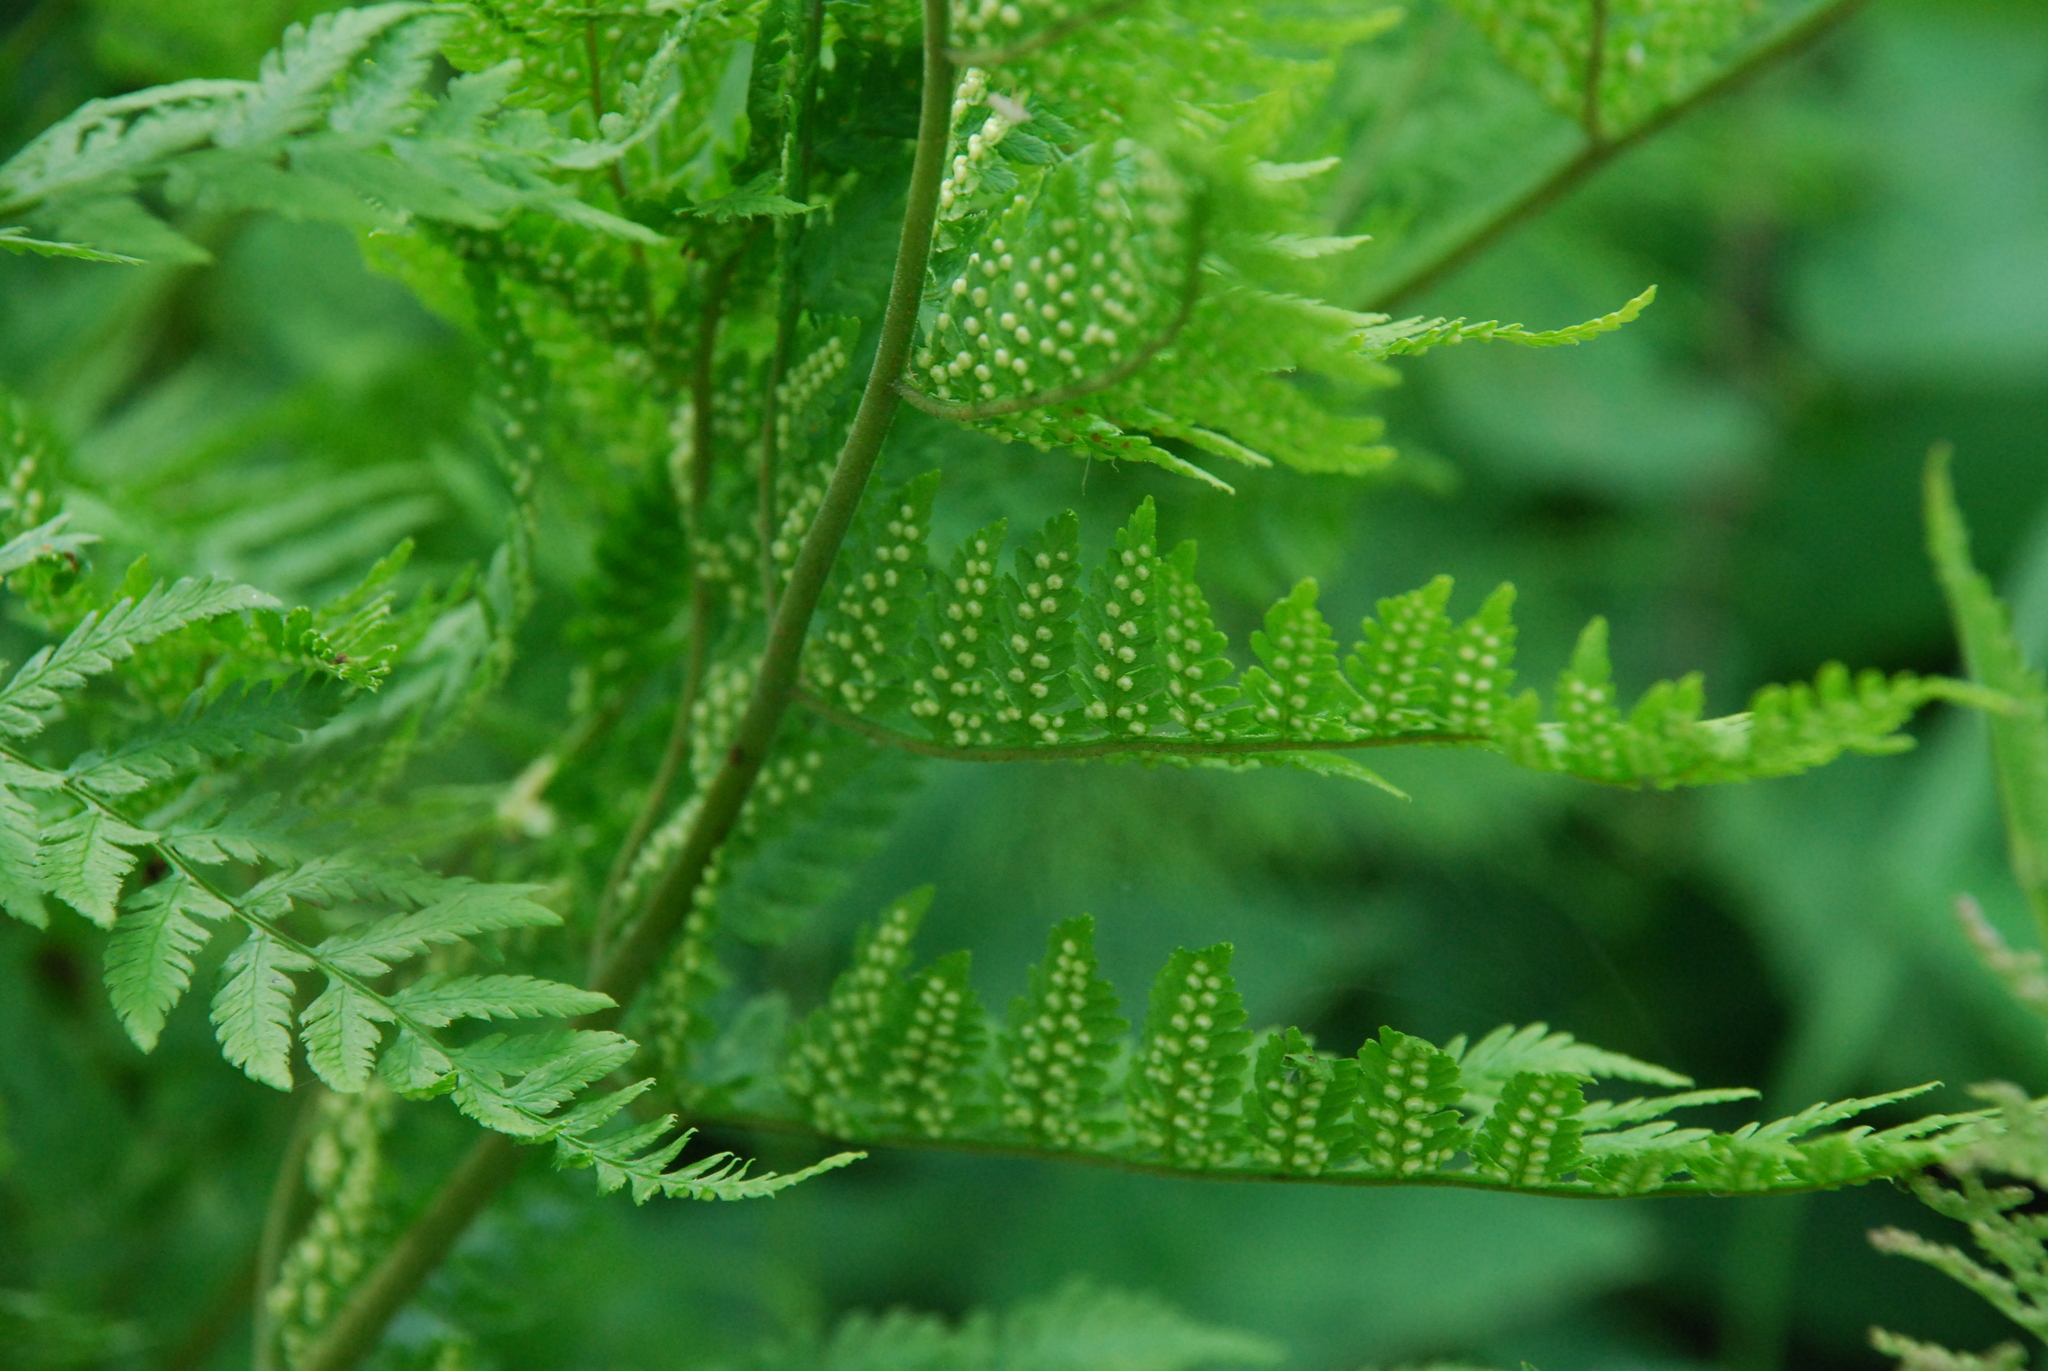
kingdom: Plantae
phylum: Tracheophyta
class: Polypodiopsida
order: Polypodiales
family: Dryopteridaceae
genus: Dryopteris
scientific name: Dryopteris carthusiana
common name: Narrow buckler-fern
